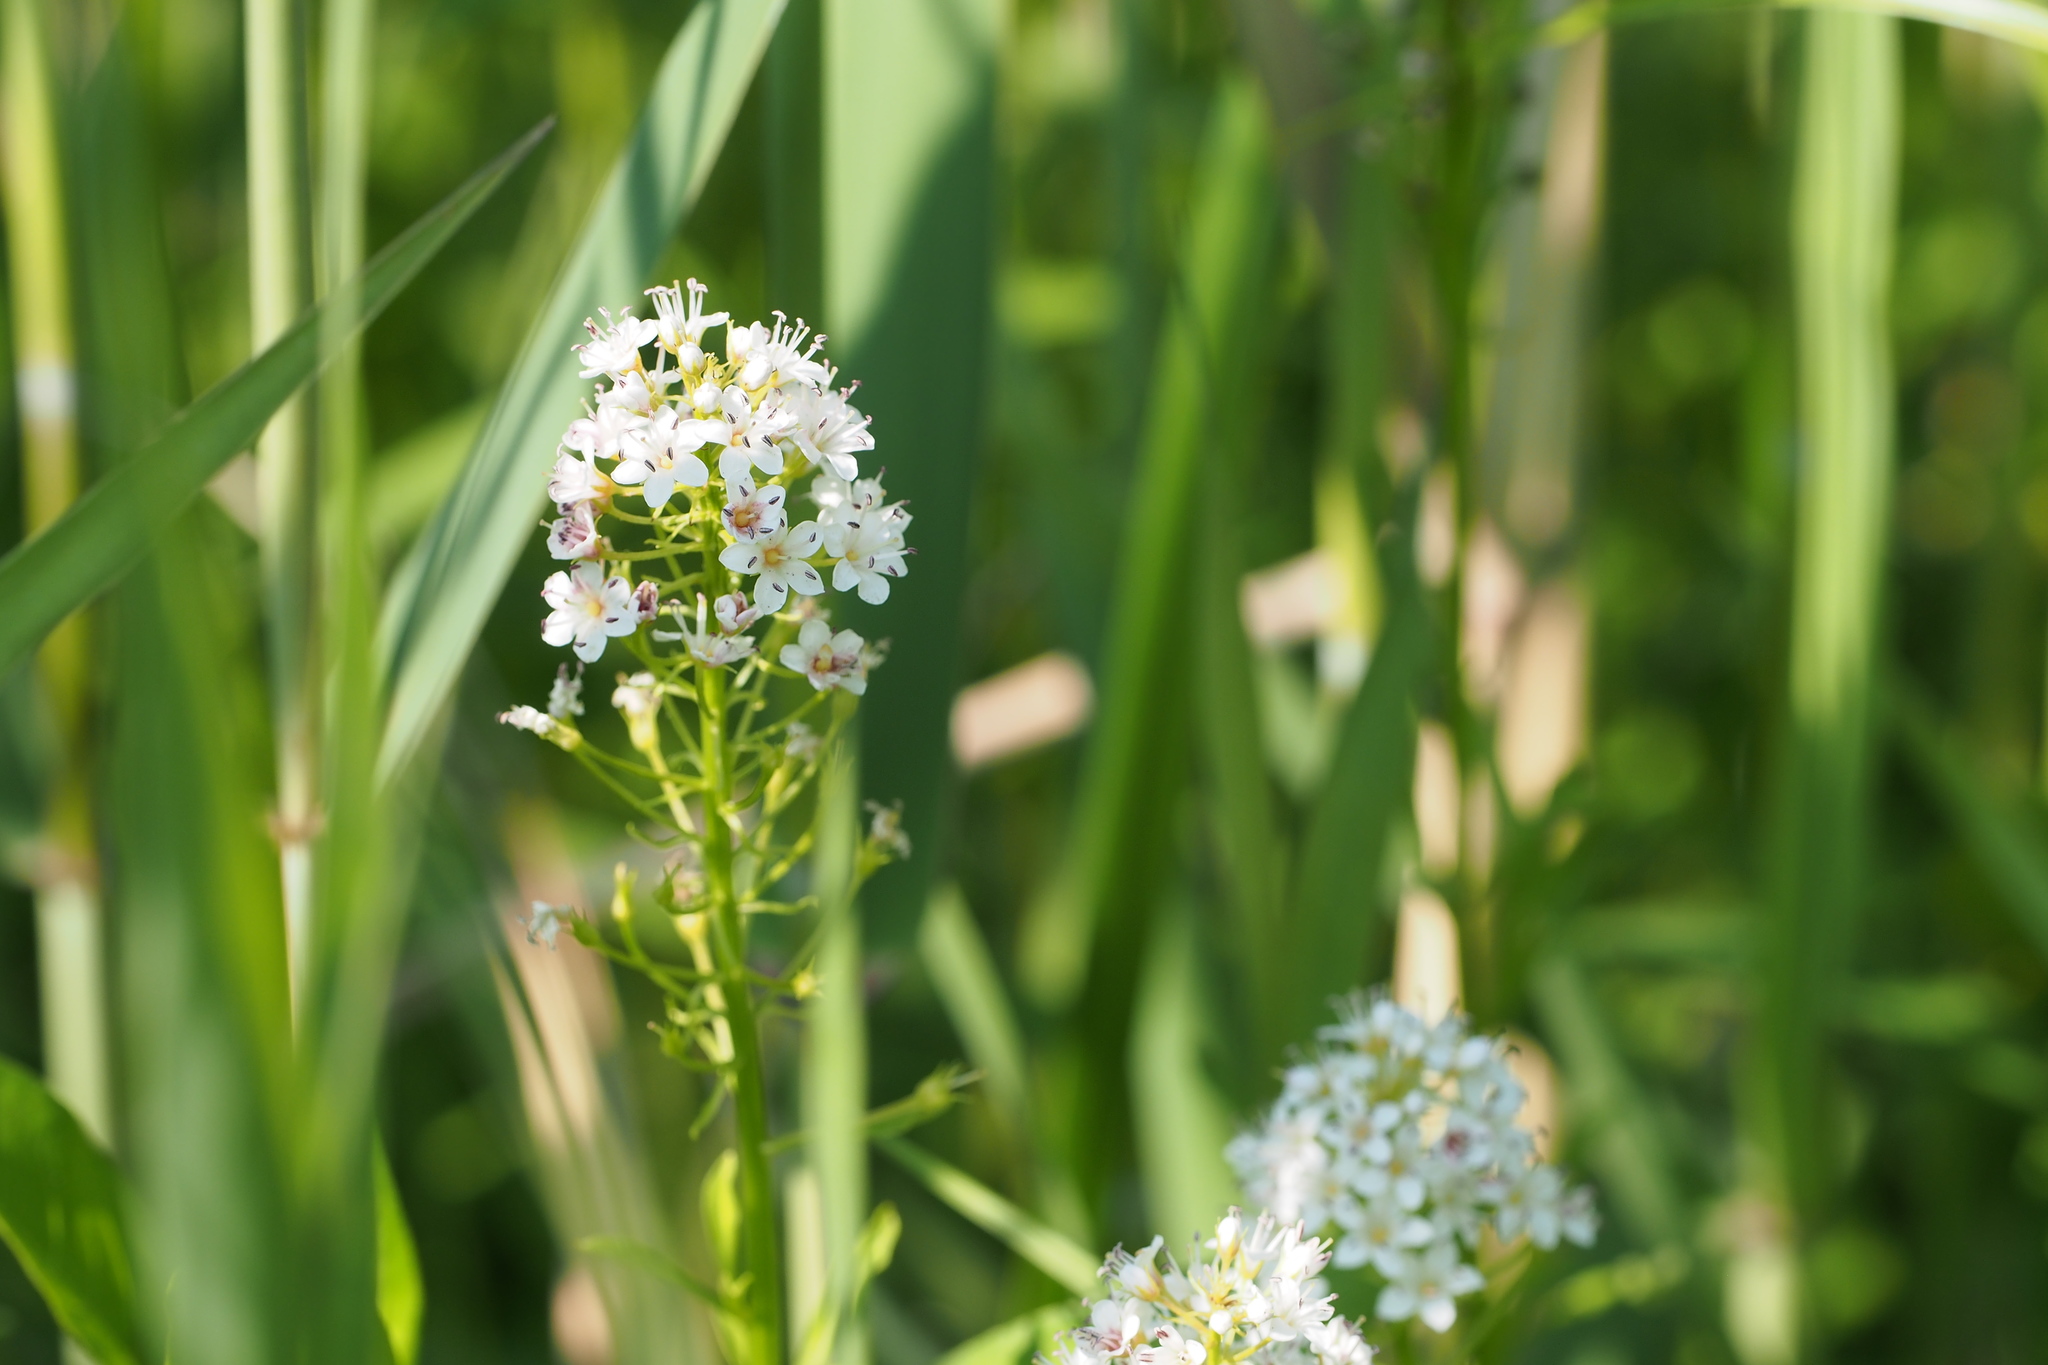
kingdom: Plantae
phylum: Tracheophyta
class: Magnoliopsida
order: Ericales
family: Primulaceae
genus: Lysimachia
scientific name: Lysimachia leucantha
